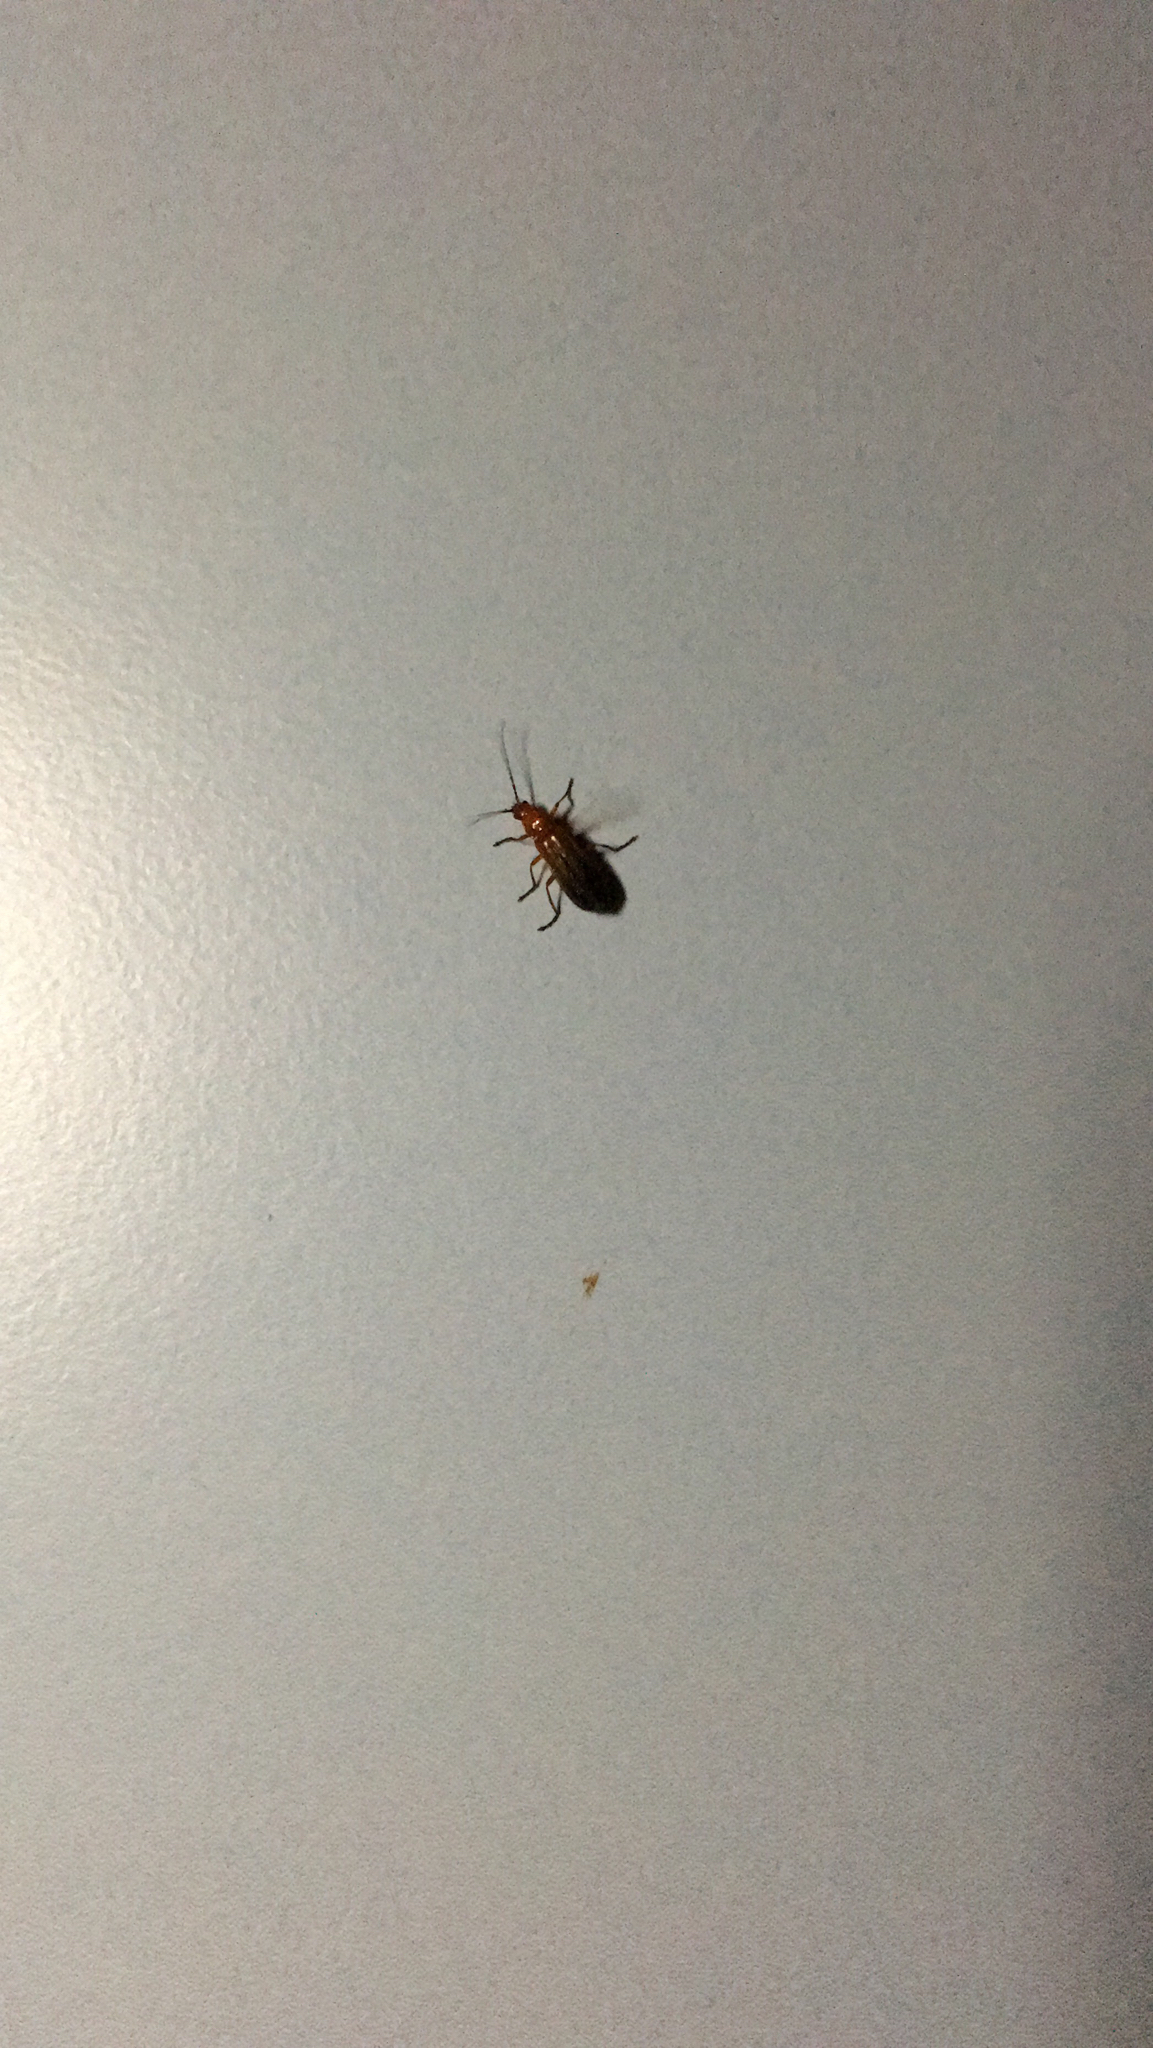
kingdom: Animalia
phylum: Arthropoda
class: Insecta
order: Coleoptera
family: Cantharidae
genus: Rhagonycha
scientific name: Rhagonycha fulva
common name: Common red soldier beetle
